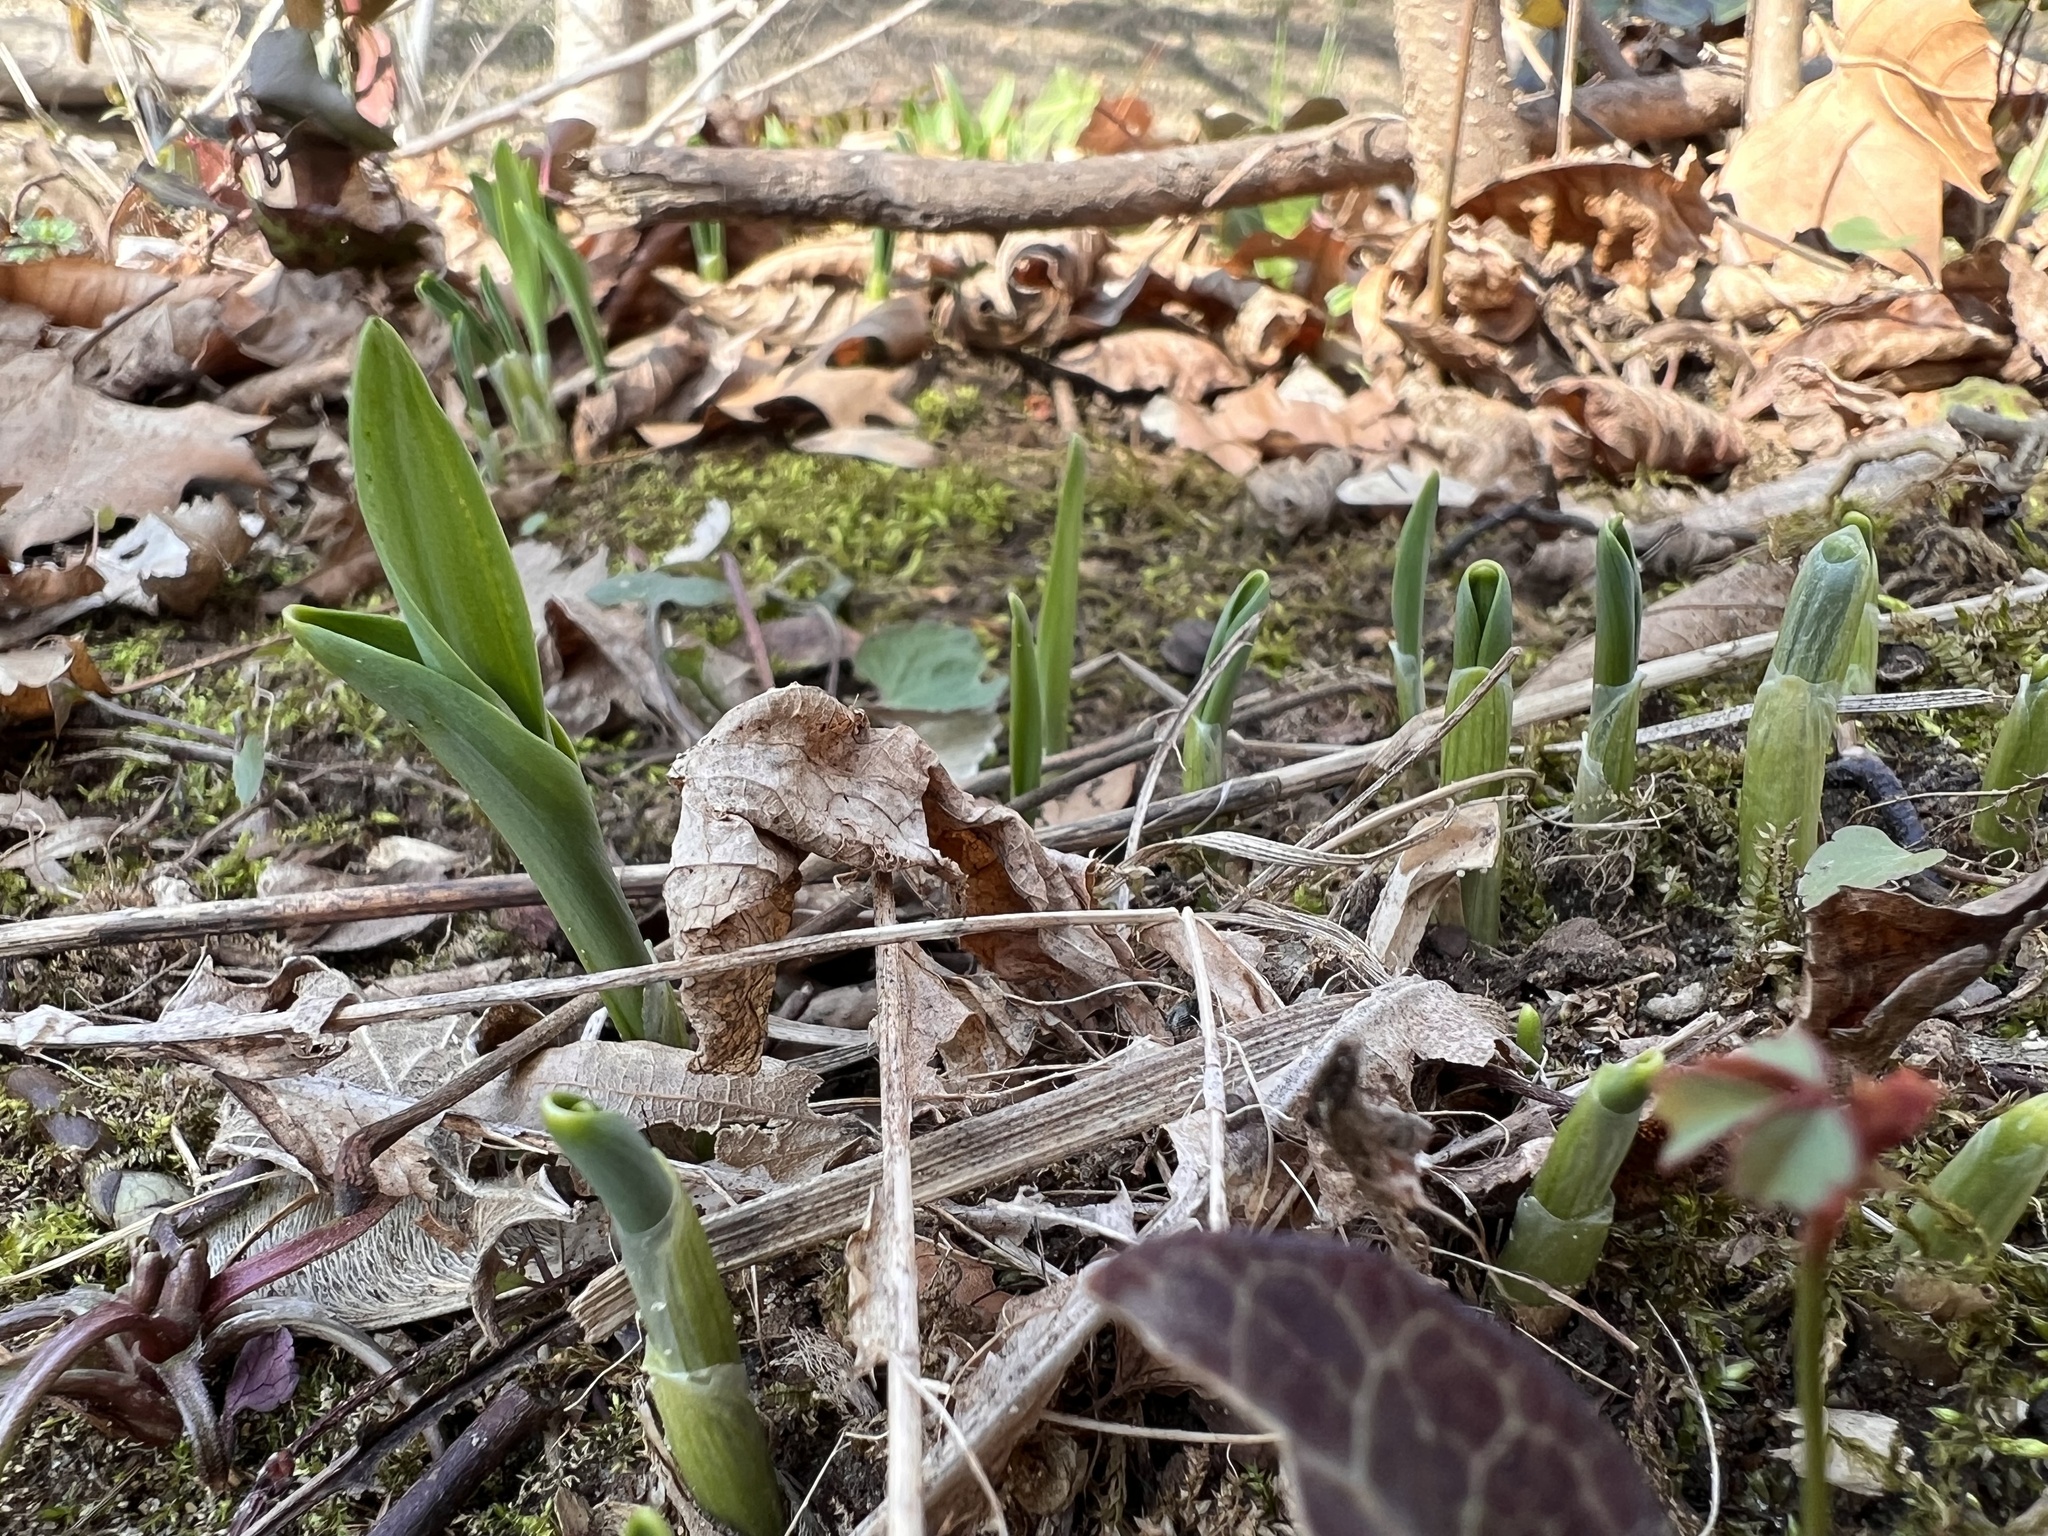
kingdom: Plantae
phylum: Tracheophyta
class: Liliopsida
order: Asparagales
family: Amaryllidaceae
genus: Allium
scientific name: Allium tricoccum
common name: Ramp
